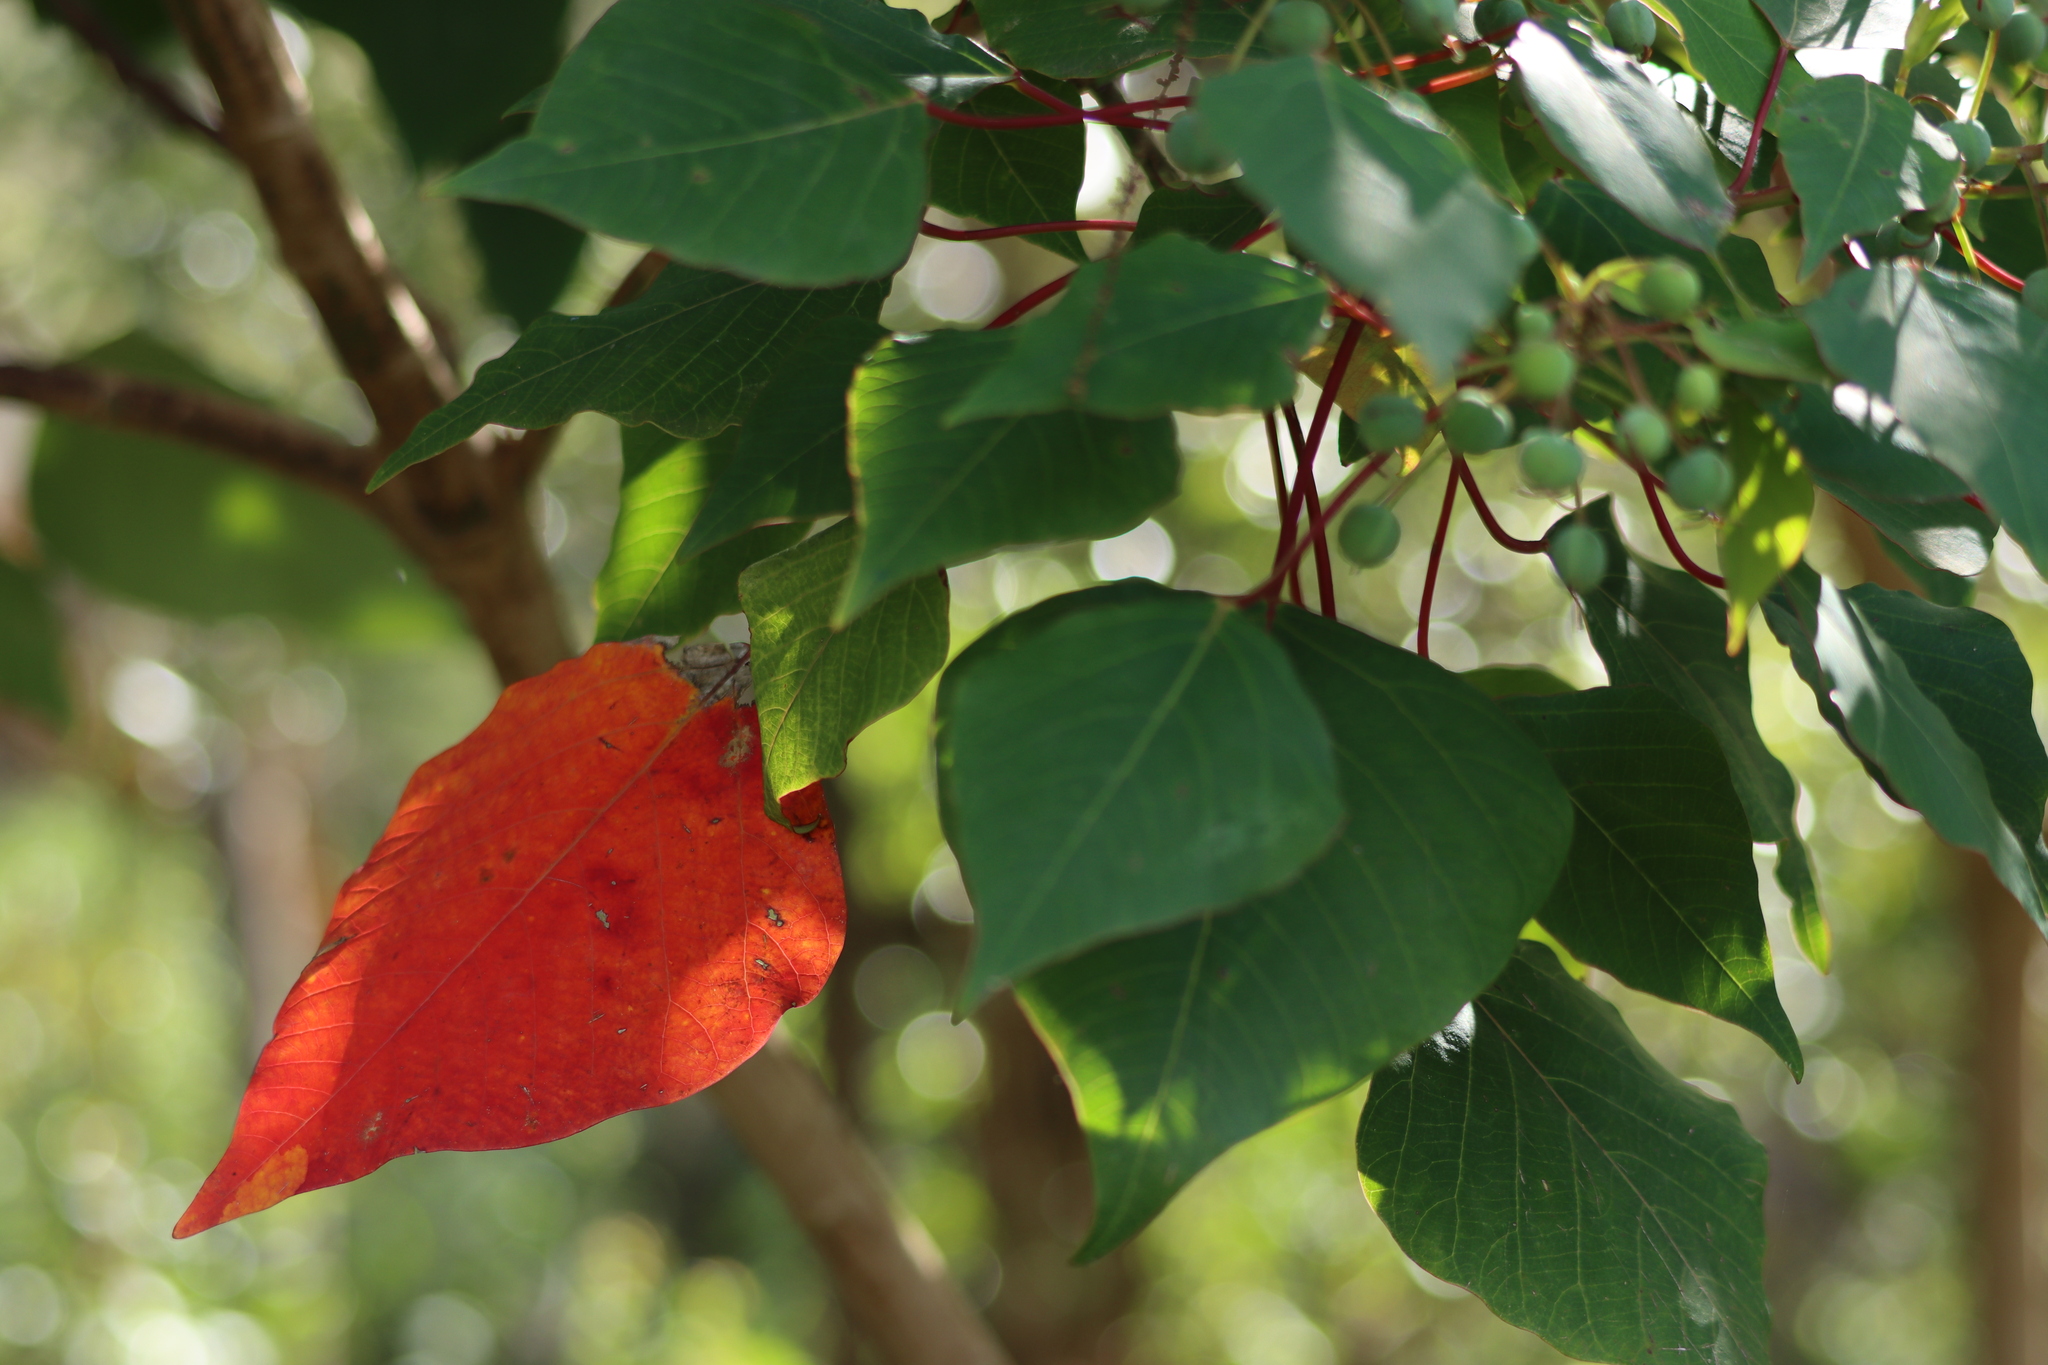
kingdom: Plantae
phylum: Tracheophyta
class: Magnoliopsida
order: Malpighiales
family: Euphorbiaceae
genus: Homalanthus
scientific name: Homalanthus populifolius
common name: Queensland poplar
